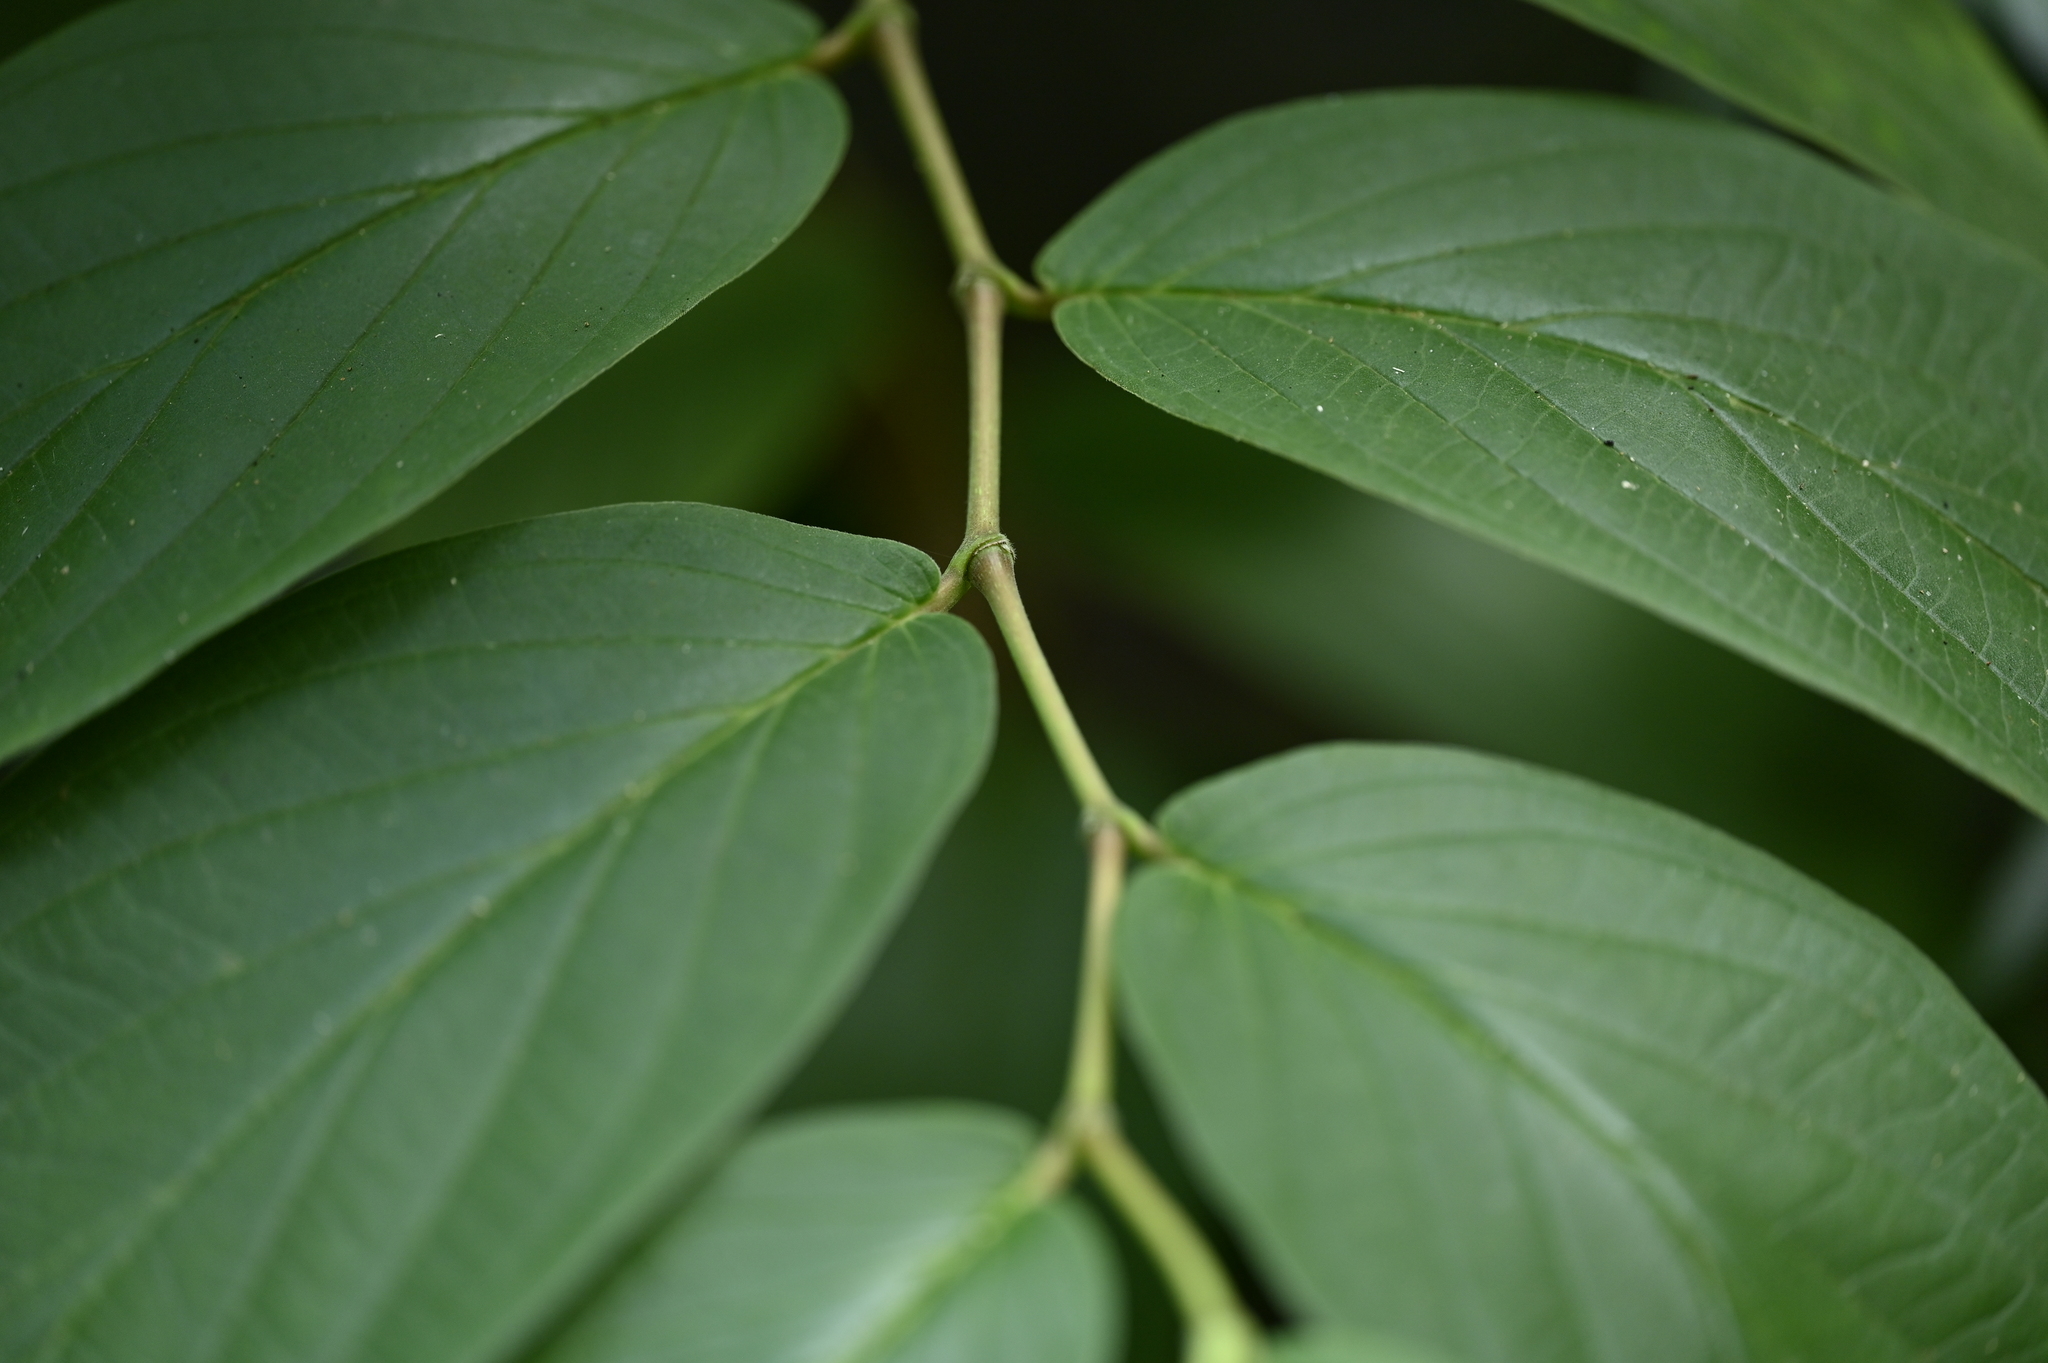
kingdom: Plantae
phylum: Tracheophyta
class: Magnoliopsida
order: Piperales
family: Piperaceae
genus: Piper
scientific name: Piper aduncum
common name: Spiked pepper
